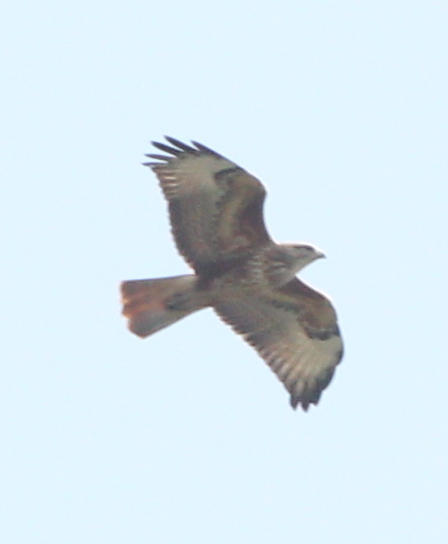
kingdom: Animalia
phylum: Chordata
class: Aves
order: Accipitriformes
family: Accipitridae
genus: Buteo
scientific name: Buteo rufinus
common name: Long-legged buzzard
